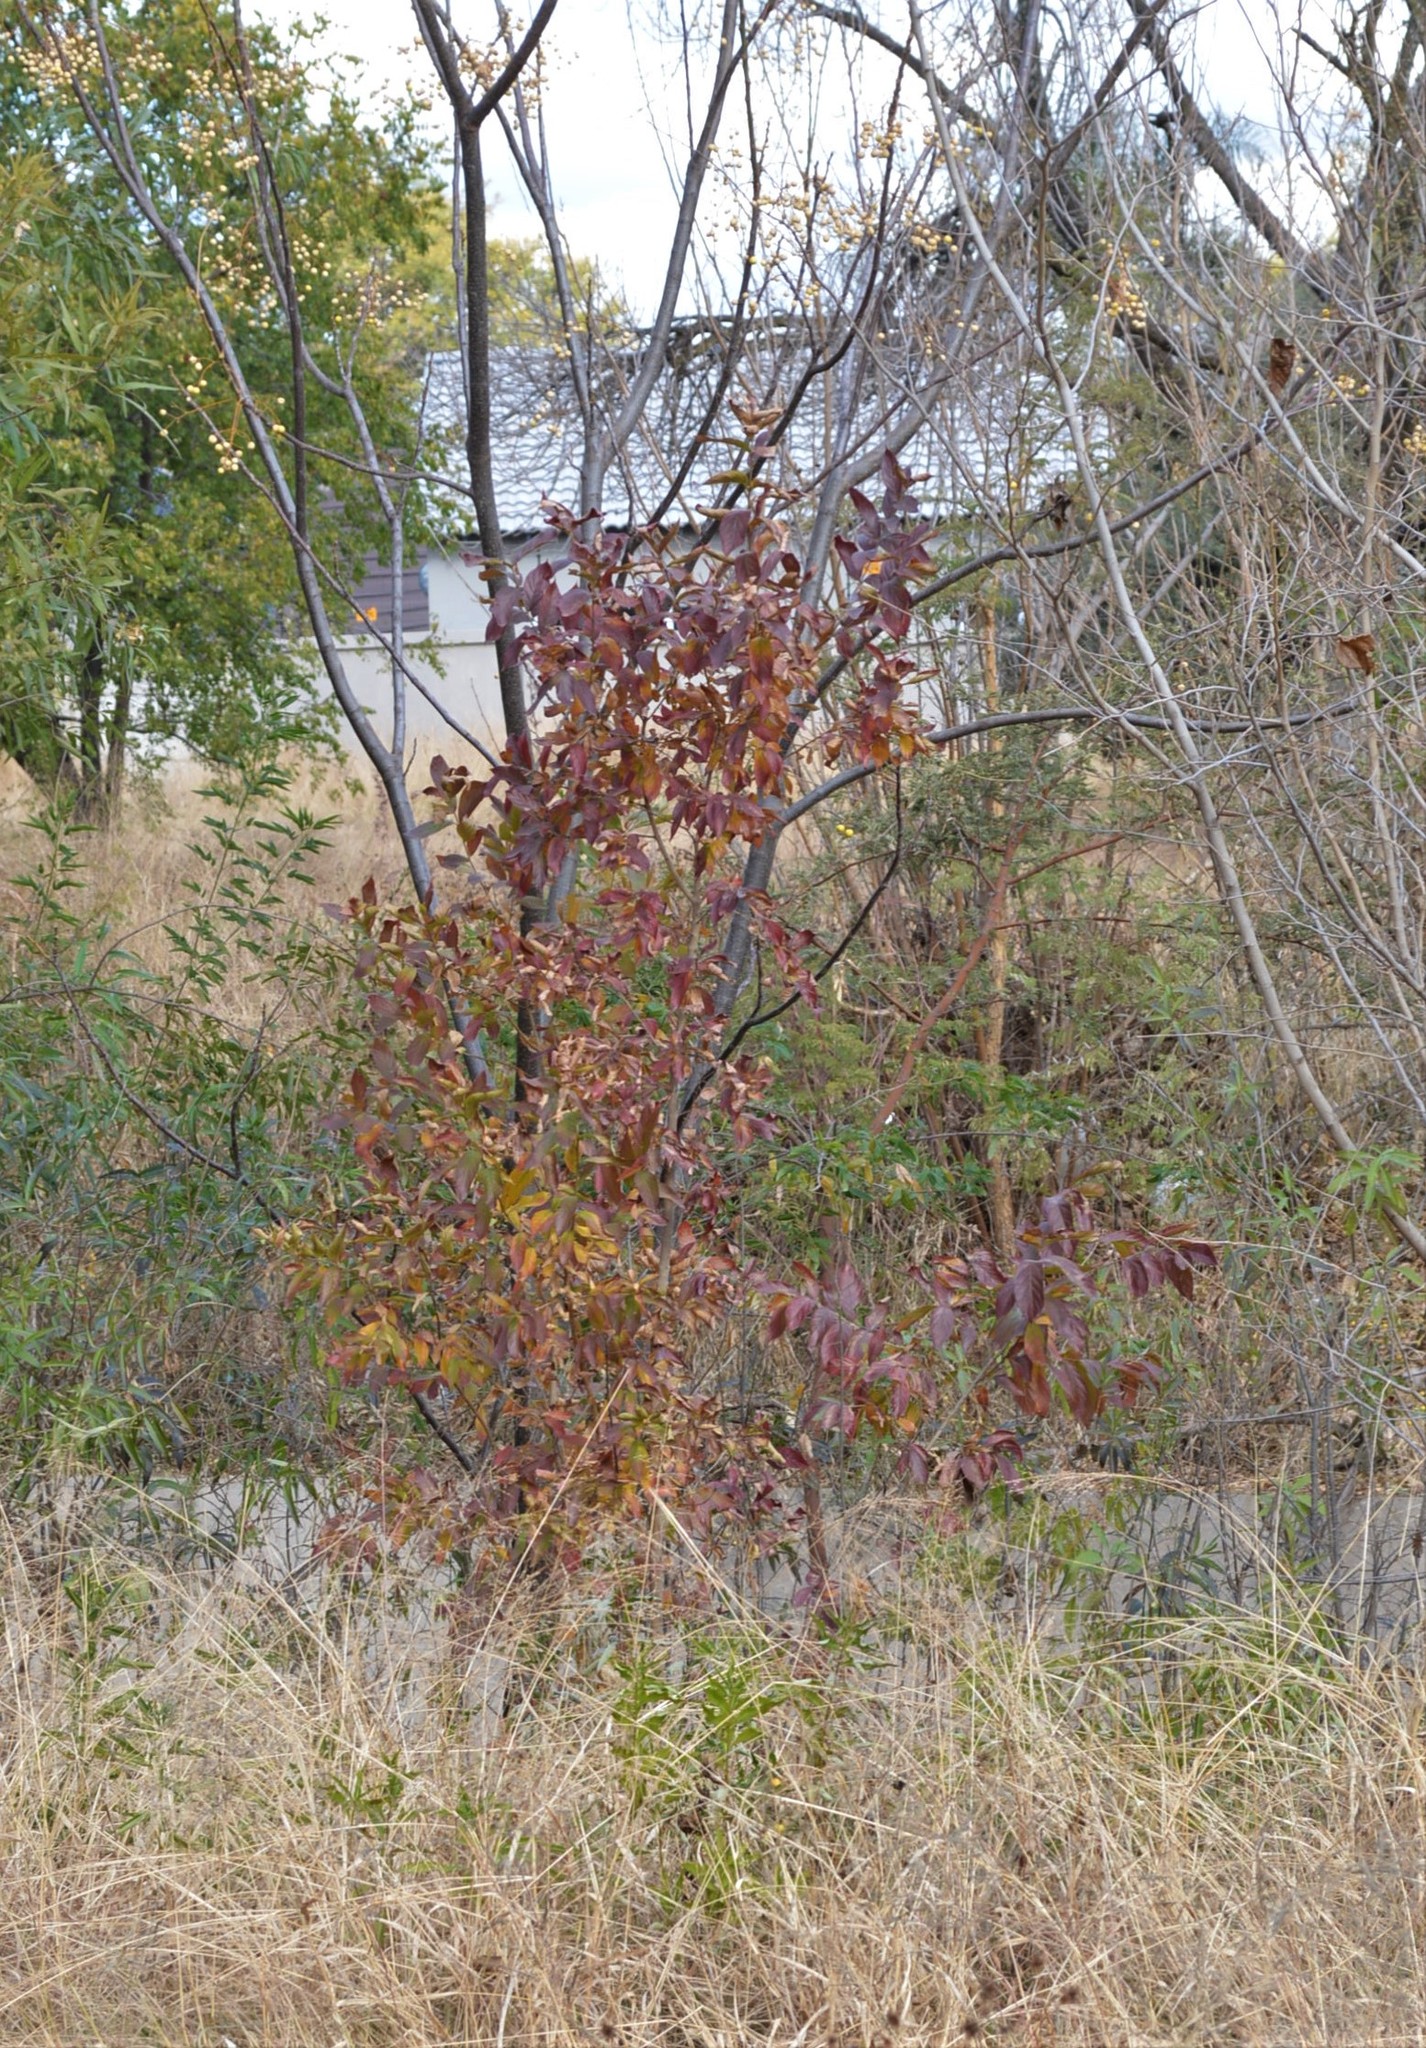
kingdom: Plantae
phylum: Tracheophyta
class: Magnoliopsida
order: Myrtales
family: Combretaceae
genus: Combretum
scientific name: Combretum erythrophyllum
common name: Bush-willow
